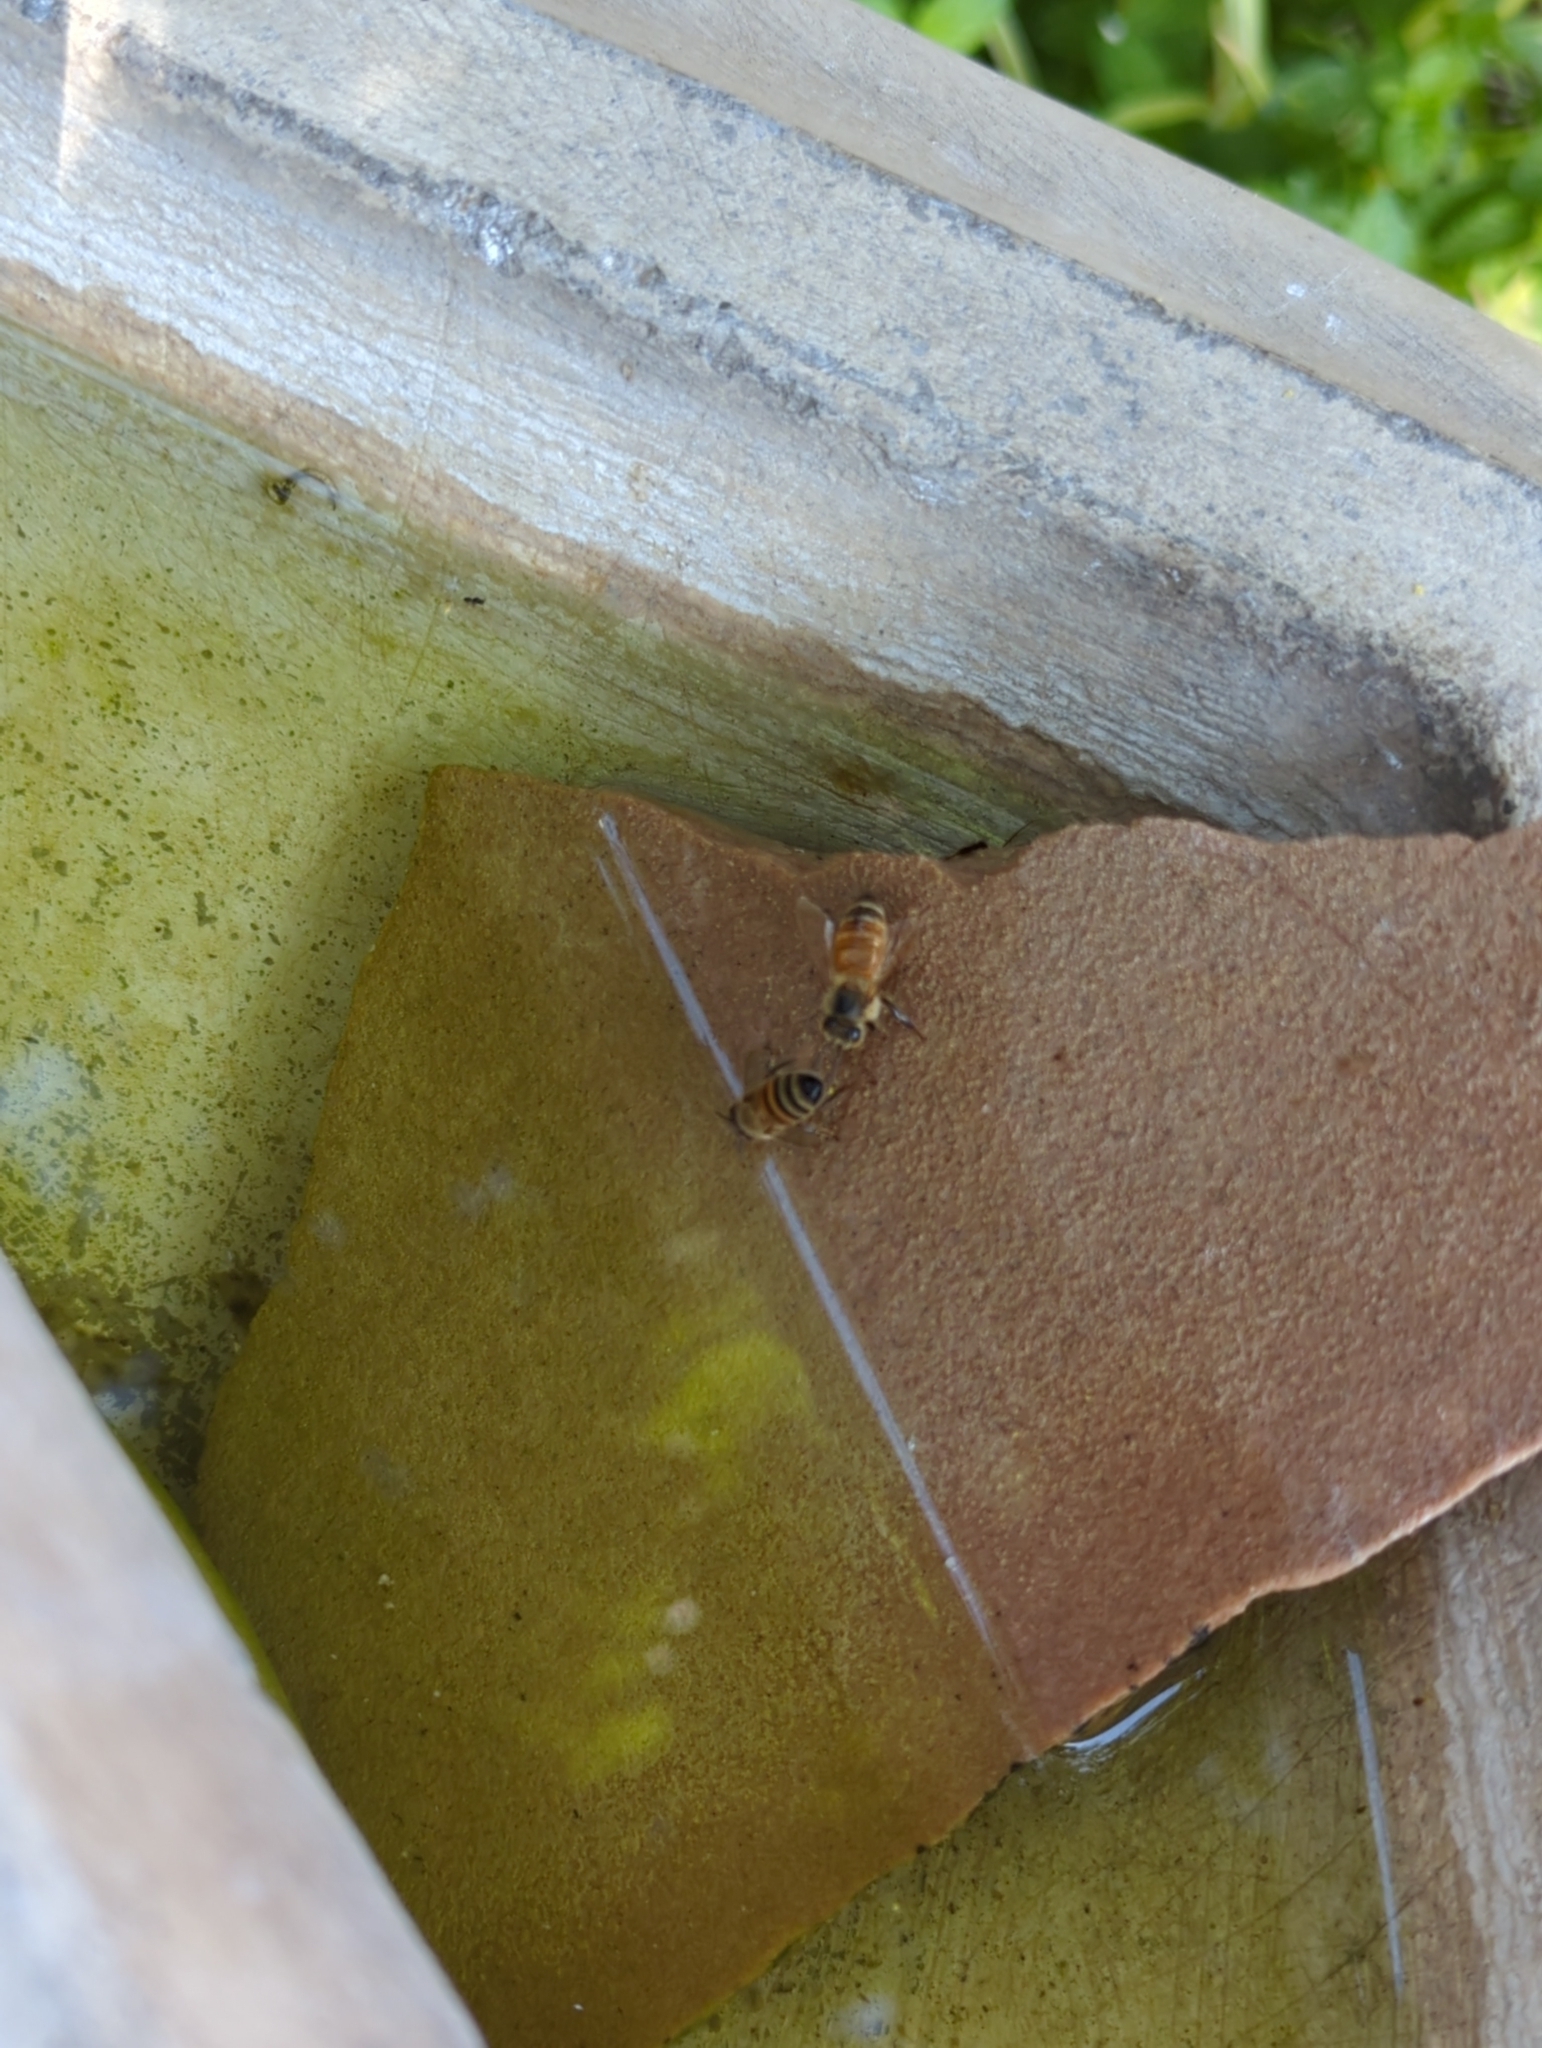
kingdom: Animalia
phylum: Arthropoda
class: Insecta
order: Hymenoptera
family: Apidae
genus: Apis
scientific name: Apis mellifera
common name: Honey bee
